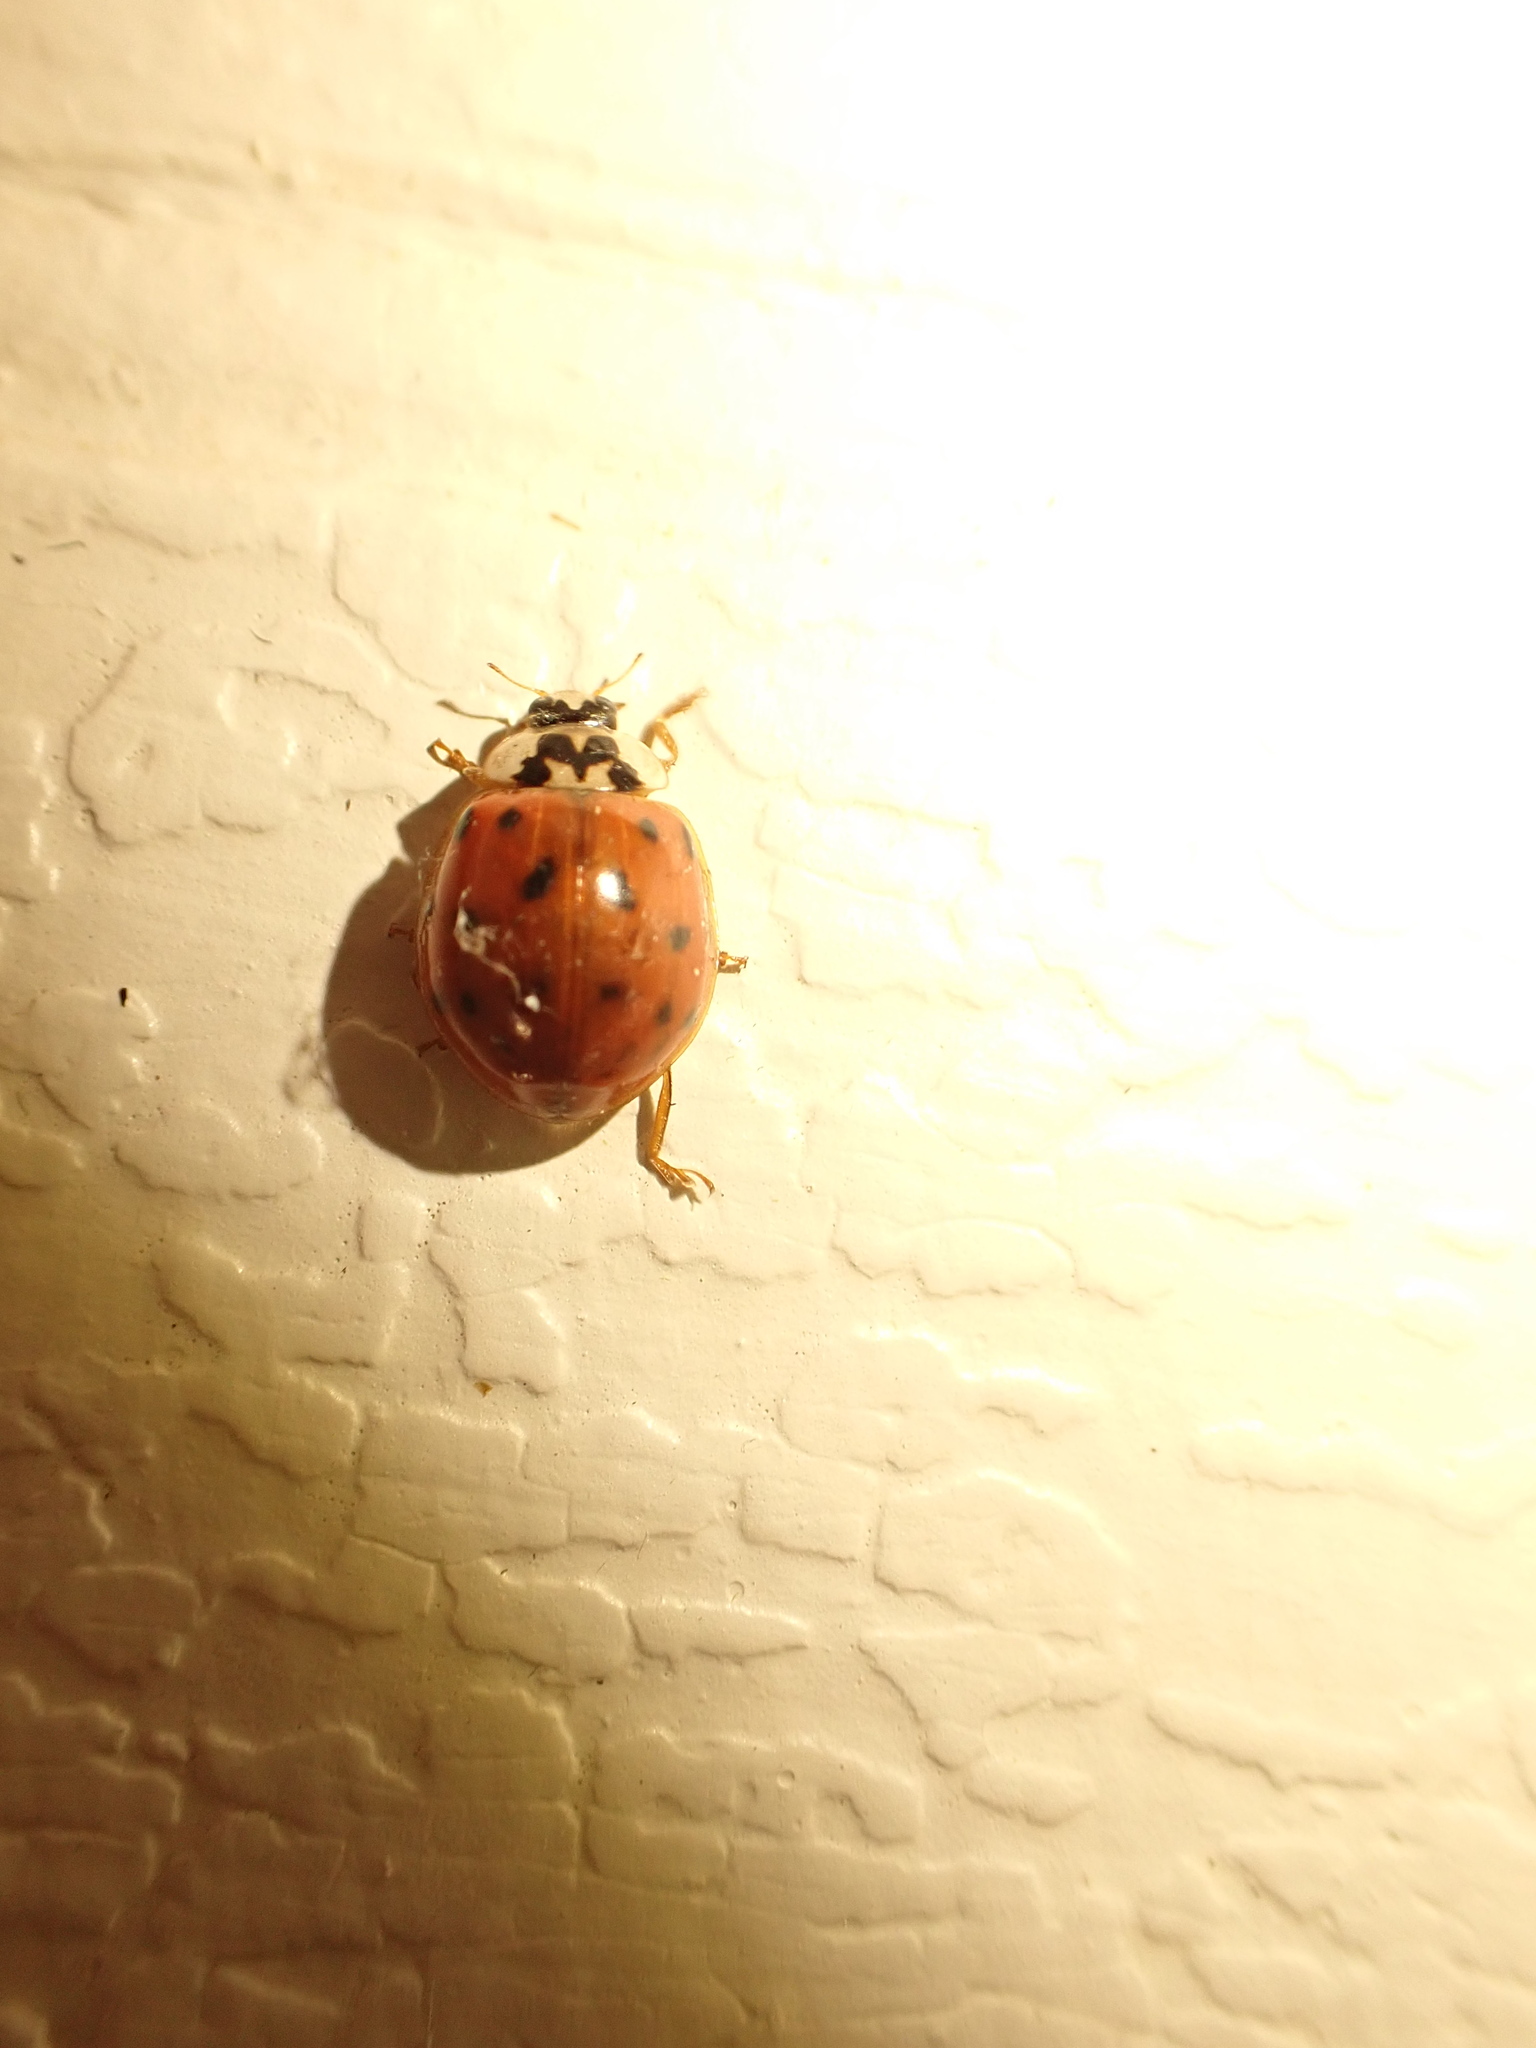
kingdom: Animalia
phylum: Arthropoda
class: Insecta
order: Coleoptera
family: Coccinellidae
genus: Harmonia
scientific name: Harmonia axyridis
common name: Harlequin ladybird
